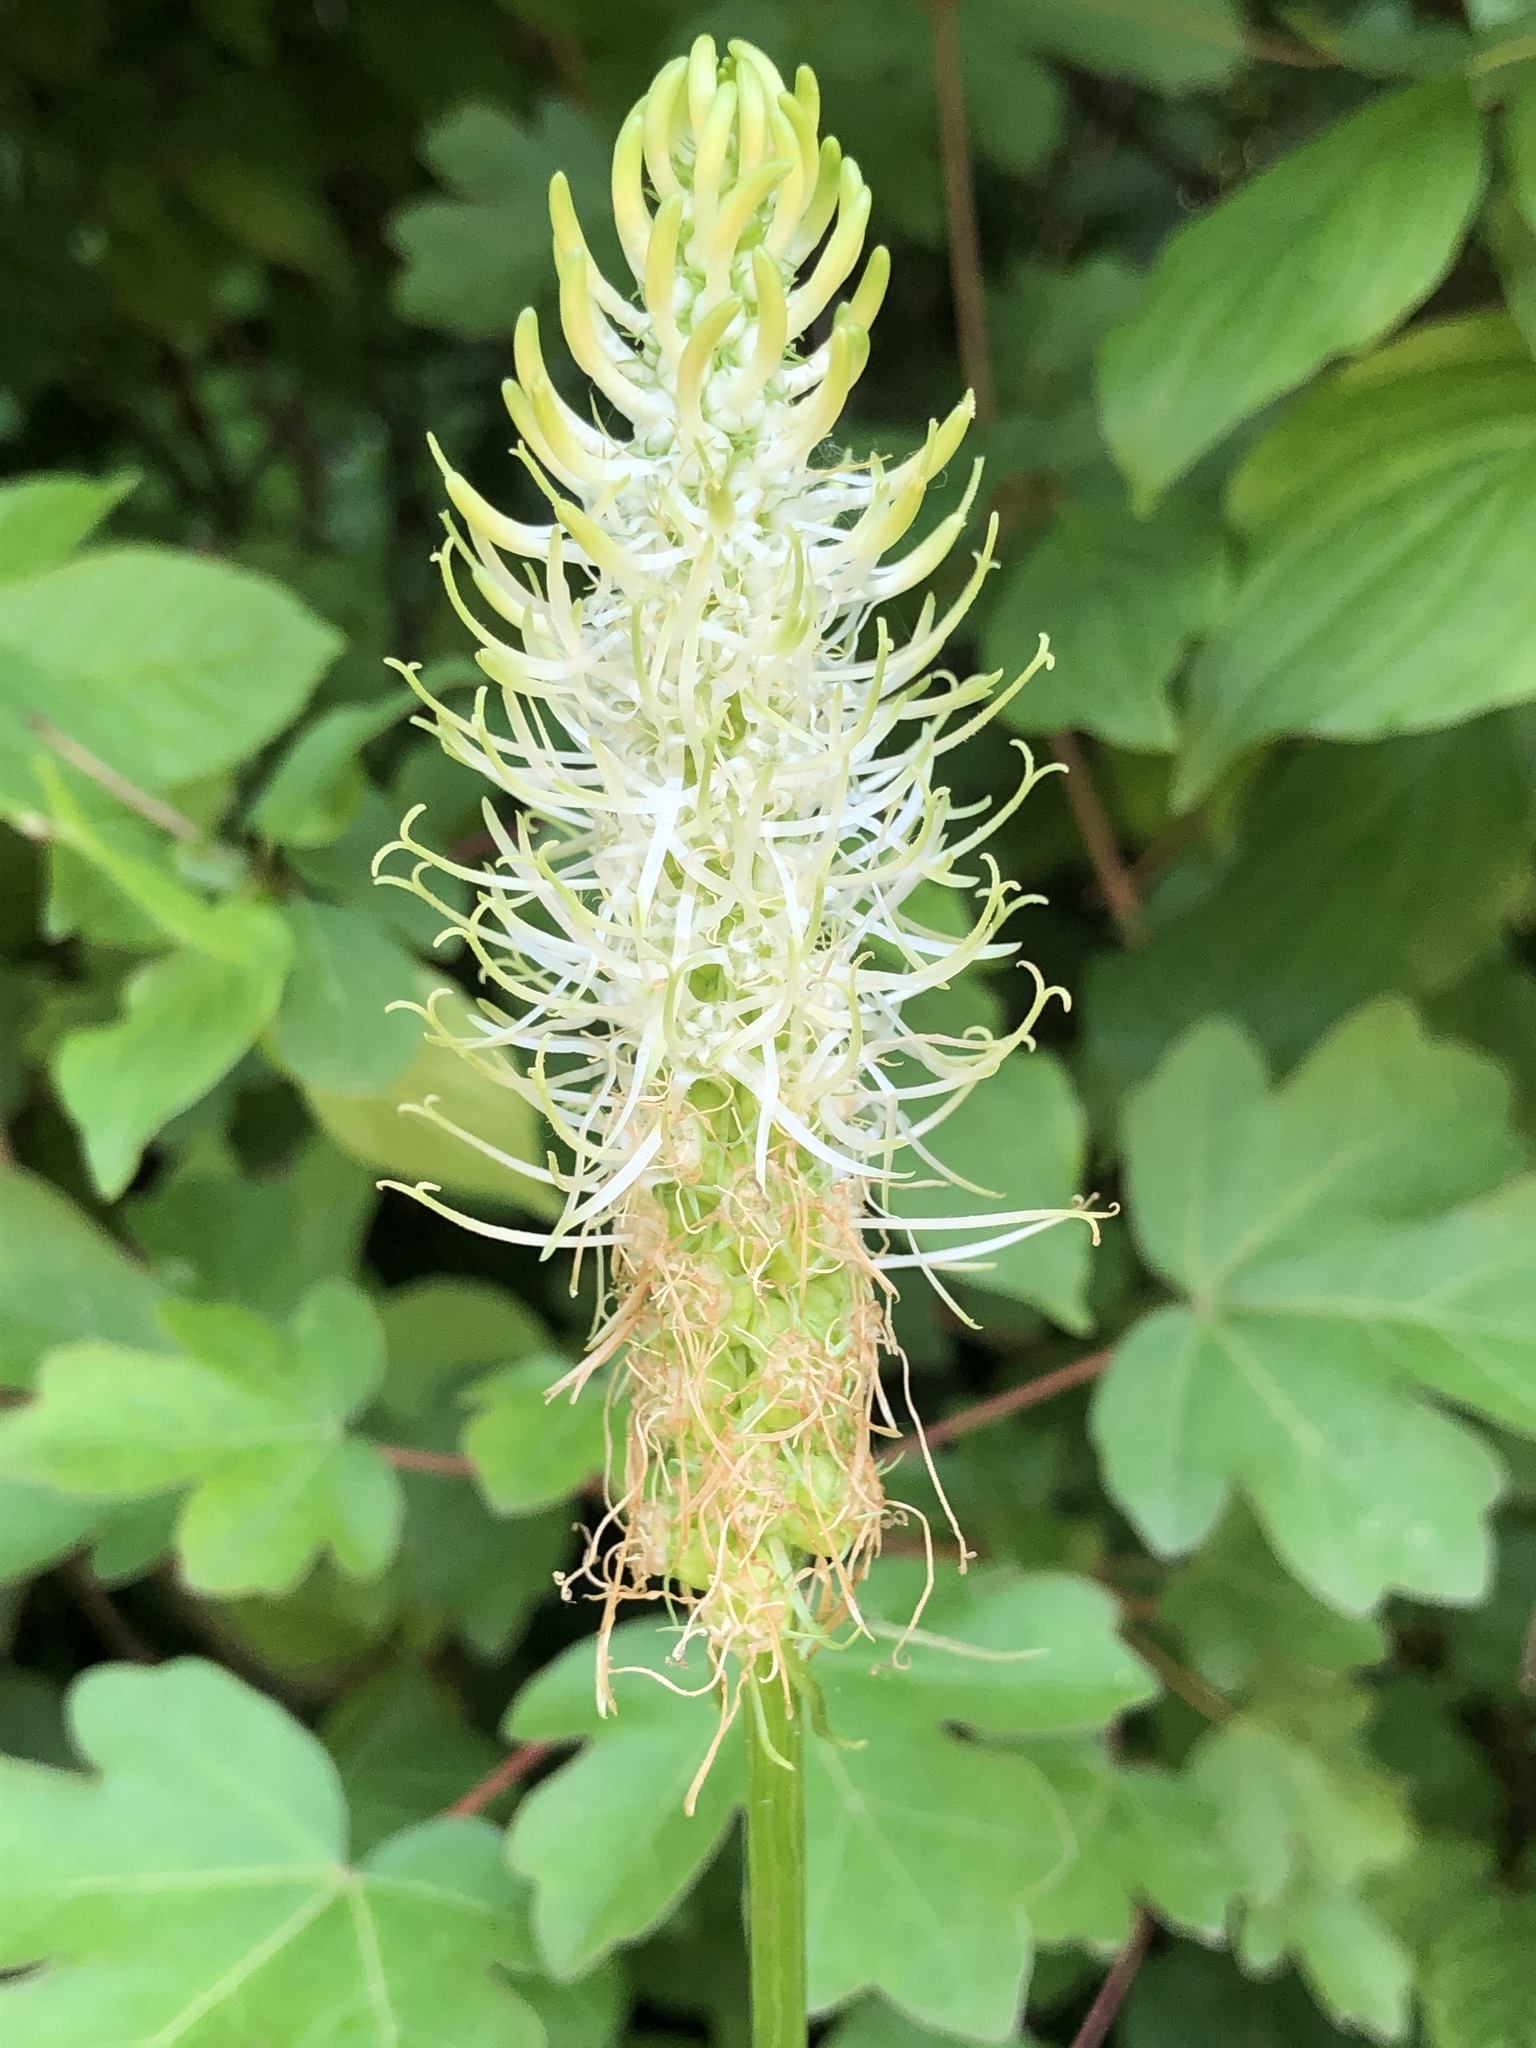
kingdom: Plantae
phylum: Tracheophyta
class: Magnoliopsida
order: Asterales
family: Campanulaceae
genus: Phyteuma
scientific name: Phyteuma spicatum
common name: Spiked rampion
